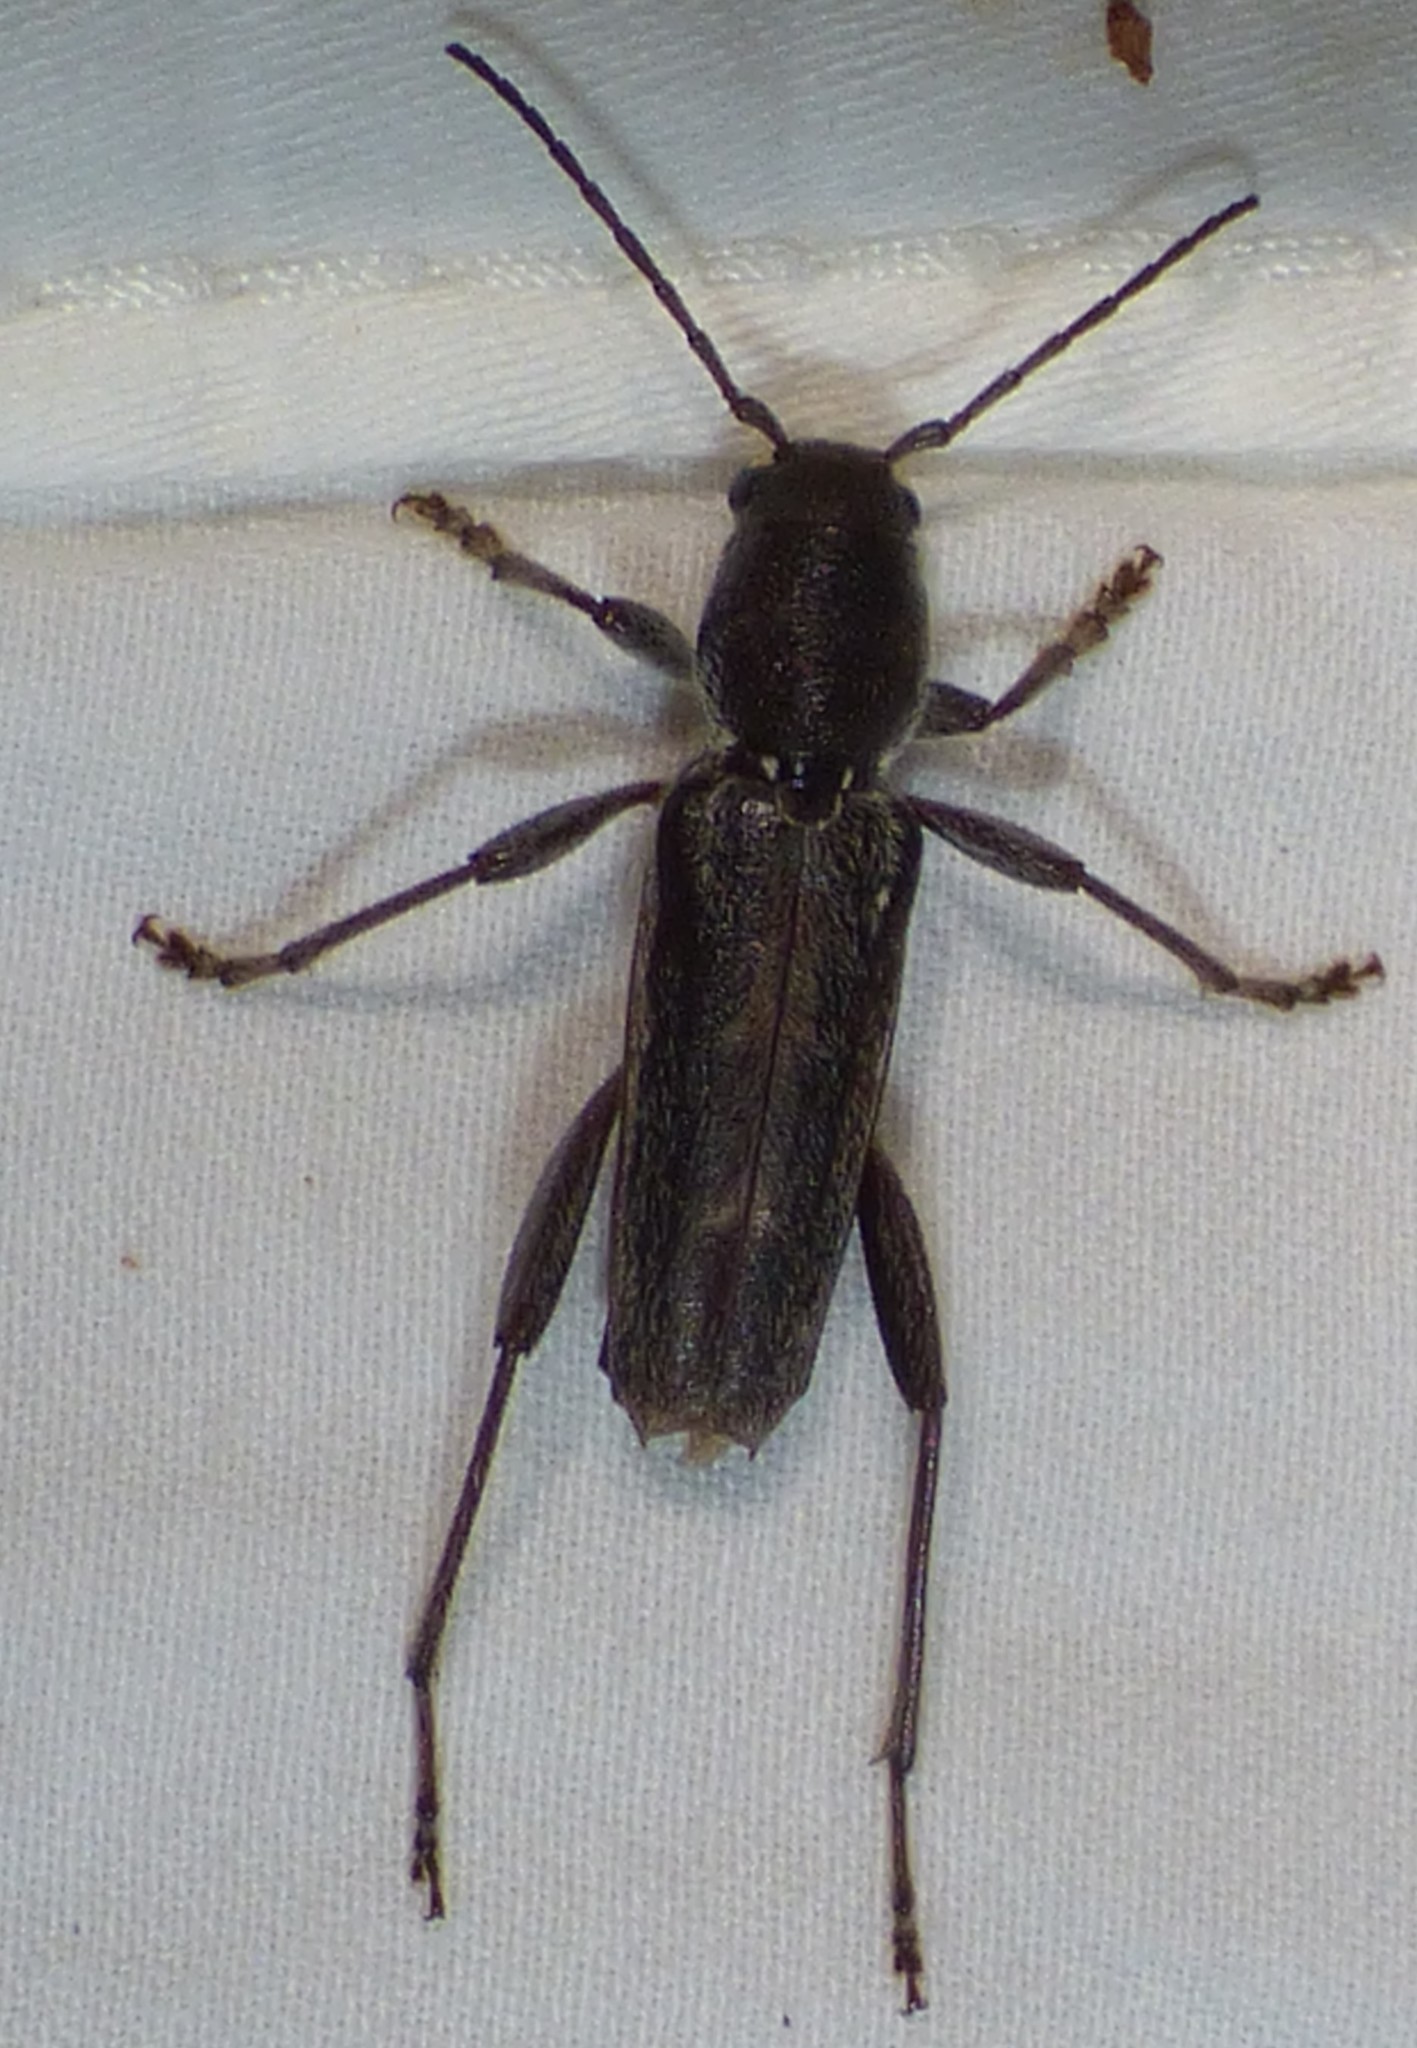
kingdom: Animalia
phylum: Arthropoda
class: Insecta
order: Coleoptera
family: Cerambycidae
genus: Xylotrechus
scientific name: Xylotrechus sagittatus
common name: Arrowhead borer
